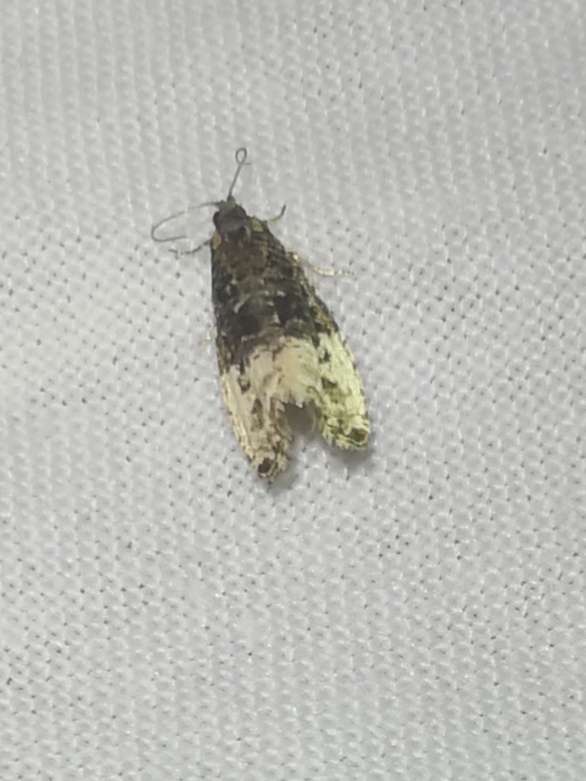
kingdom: Animalia
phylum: Arthropoda
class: Insecta
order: Lepidoptera
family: Tortricidae
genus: Hedya
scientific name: Hedya nubiferana
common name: Marbled orchard tortrix
